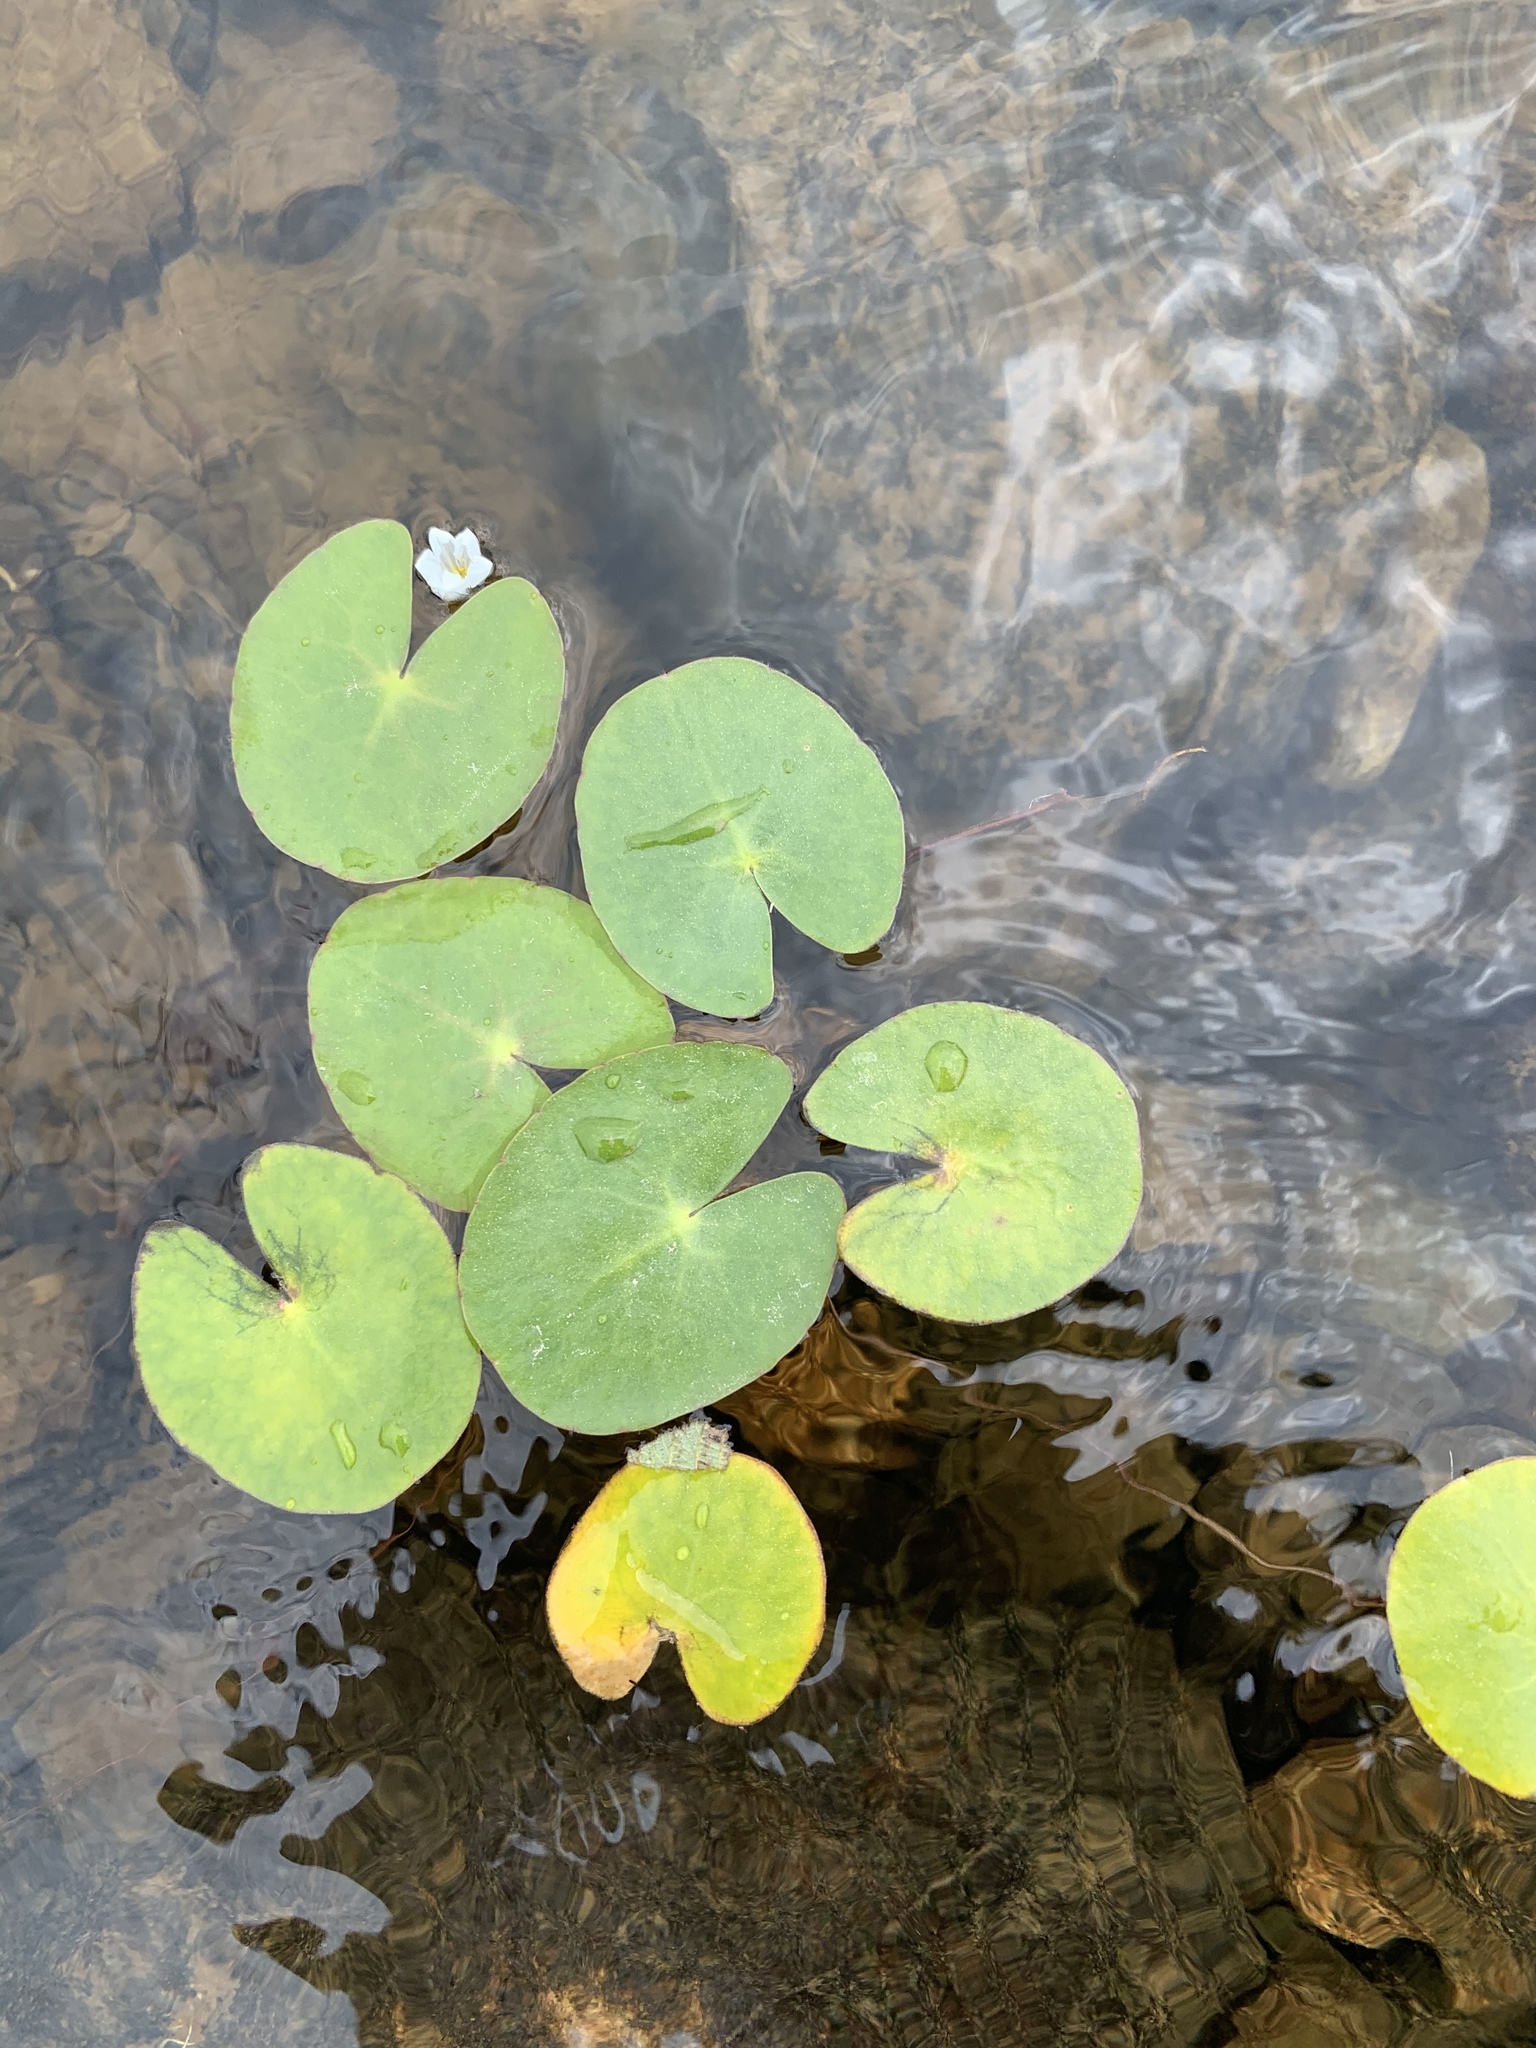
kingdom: Plantae
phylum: Tracheophyta
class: Magnoliopsida
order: Asterales
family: Menyanthaceae
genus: Nymphoides
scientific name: Nymphoides cordata
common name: Eight-angled floatingheart
